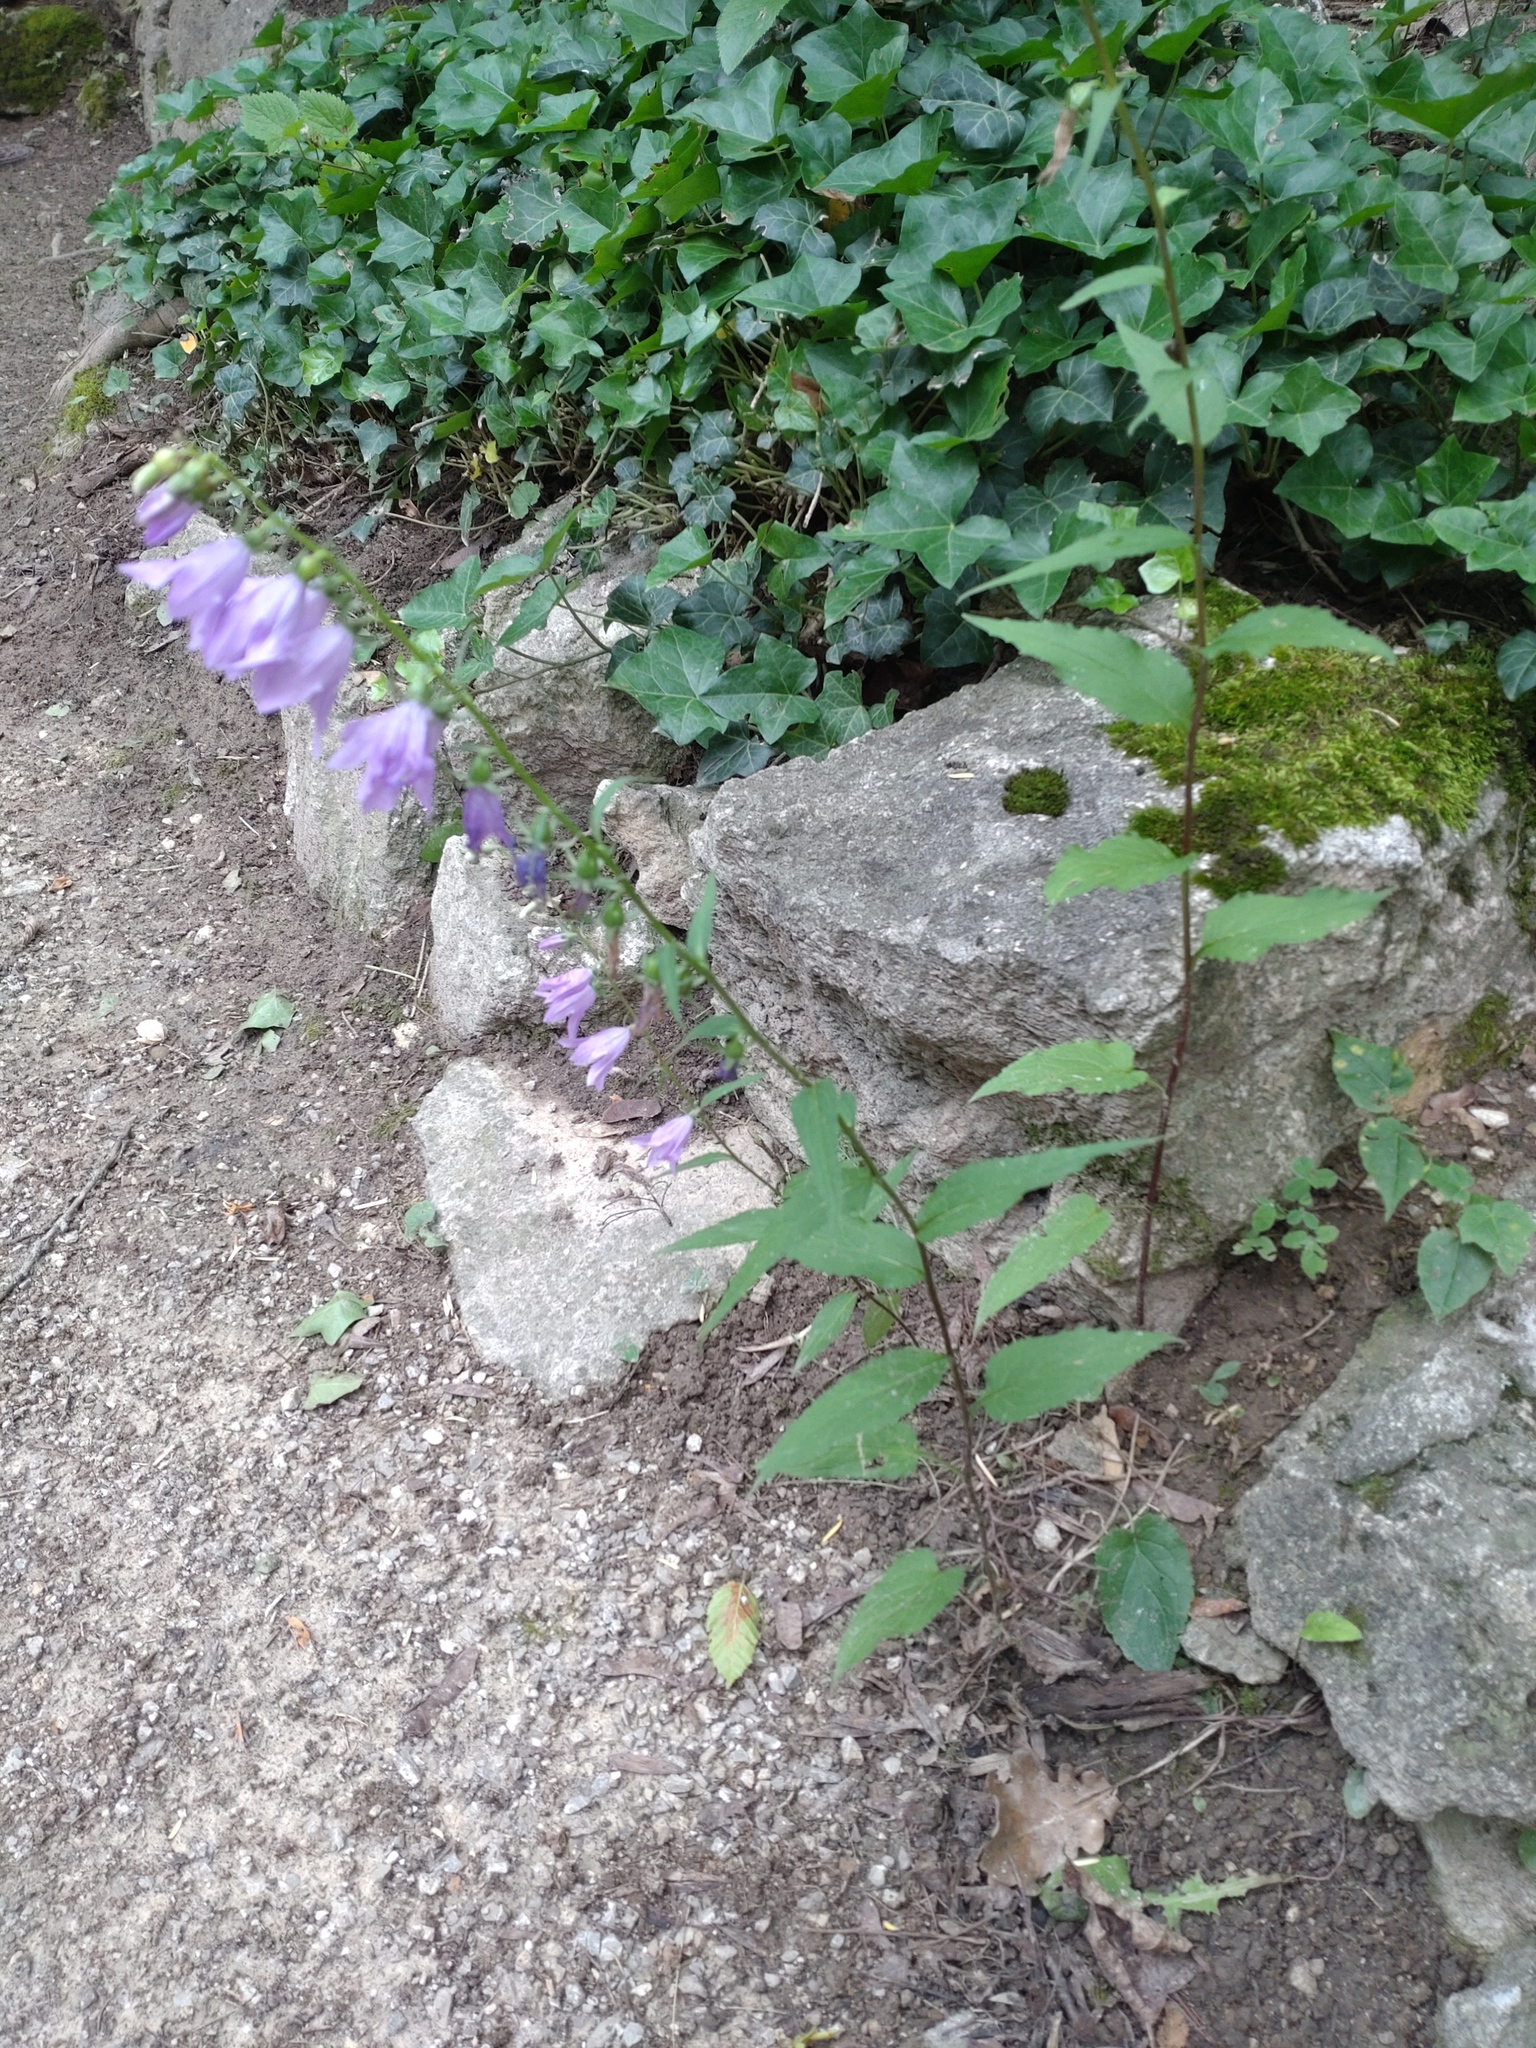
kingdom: Plantae
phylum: Tracheophyta
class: Magnoliopsida
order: Asterales
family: Campanulaceae
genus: Campanula
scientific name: Campanula rapunculoides
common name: Creeping bellflower
